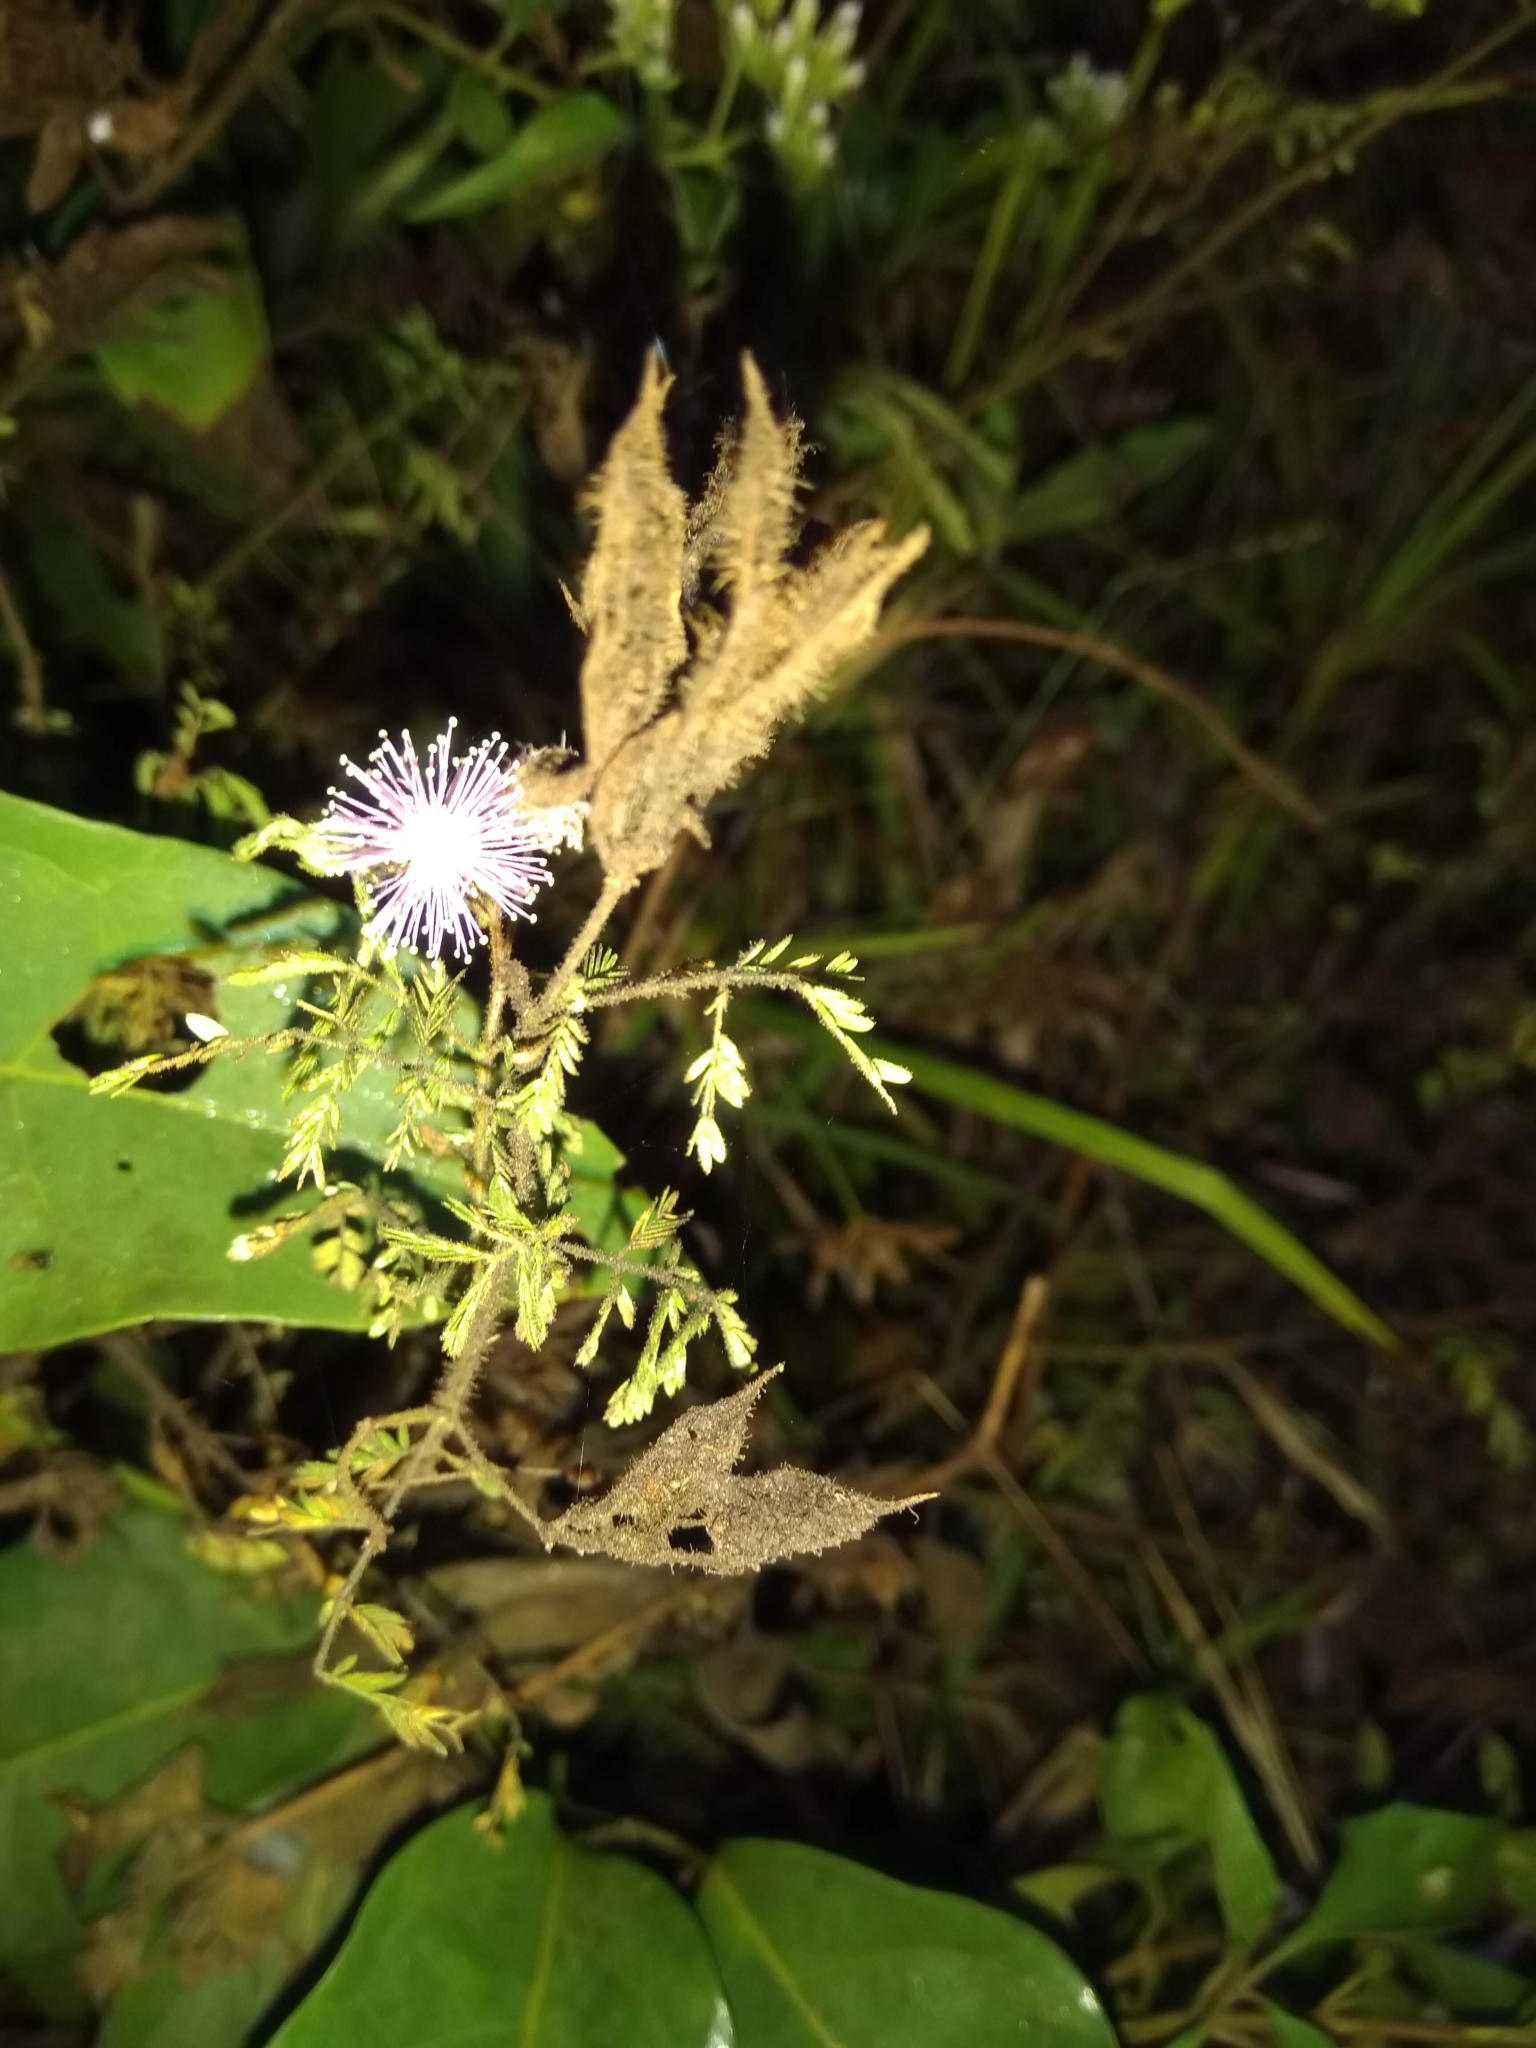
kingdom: Plantae
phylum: Tracheophyta
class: Magnoliopsida
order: Fabales
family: Fabaceae
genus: Mimosa
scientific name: Mimosa pudica
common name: Sensitive plant
